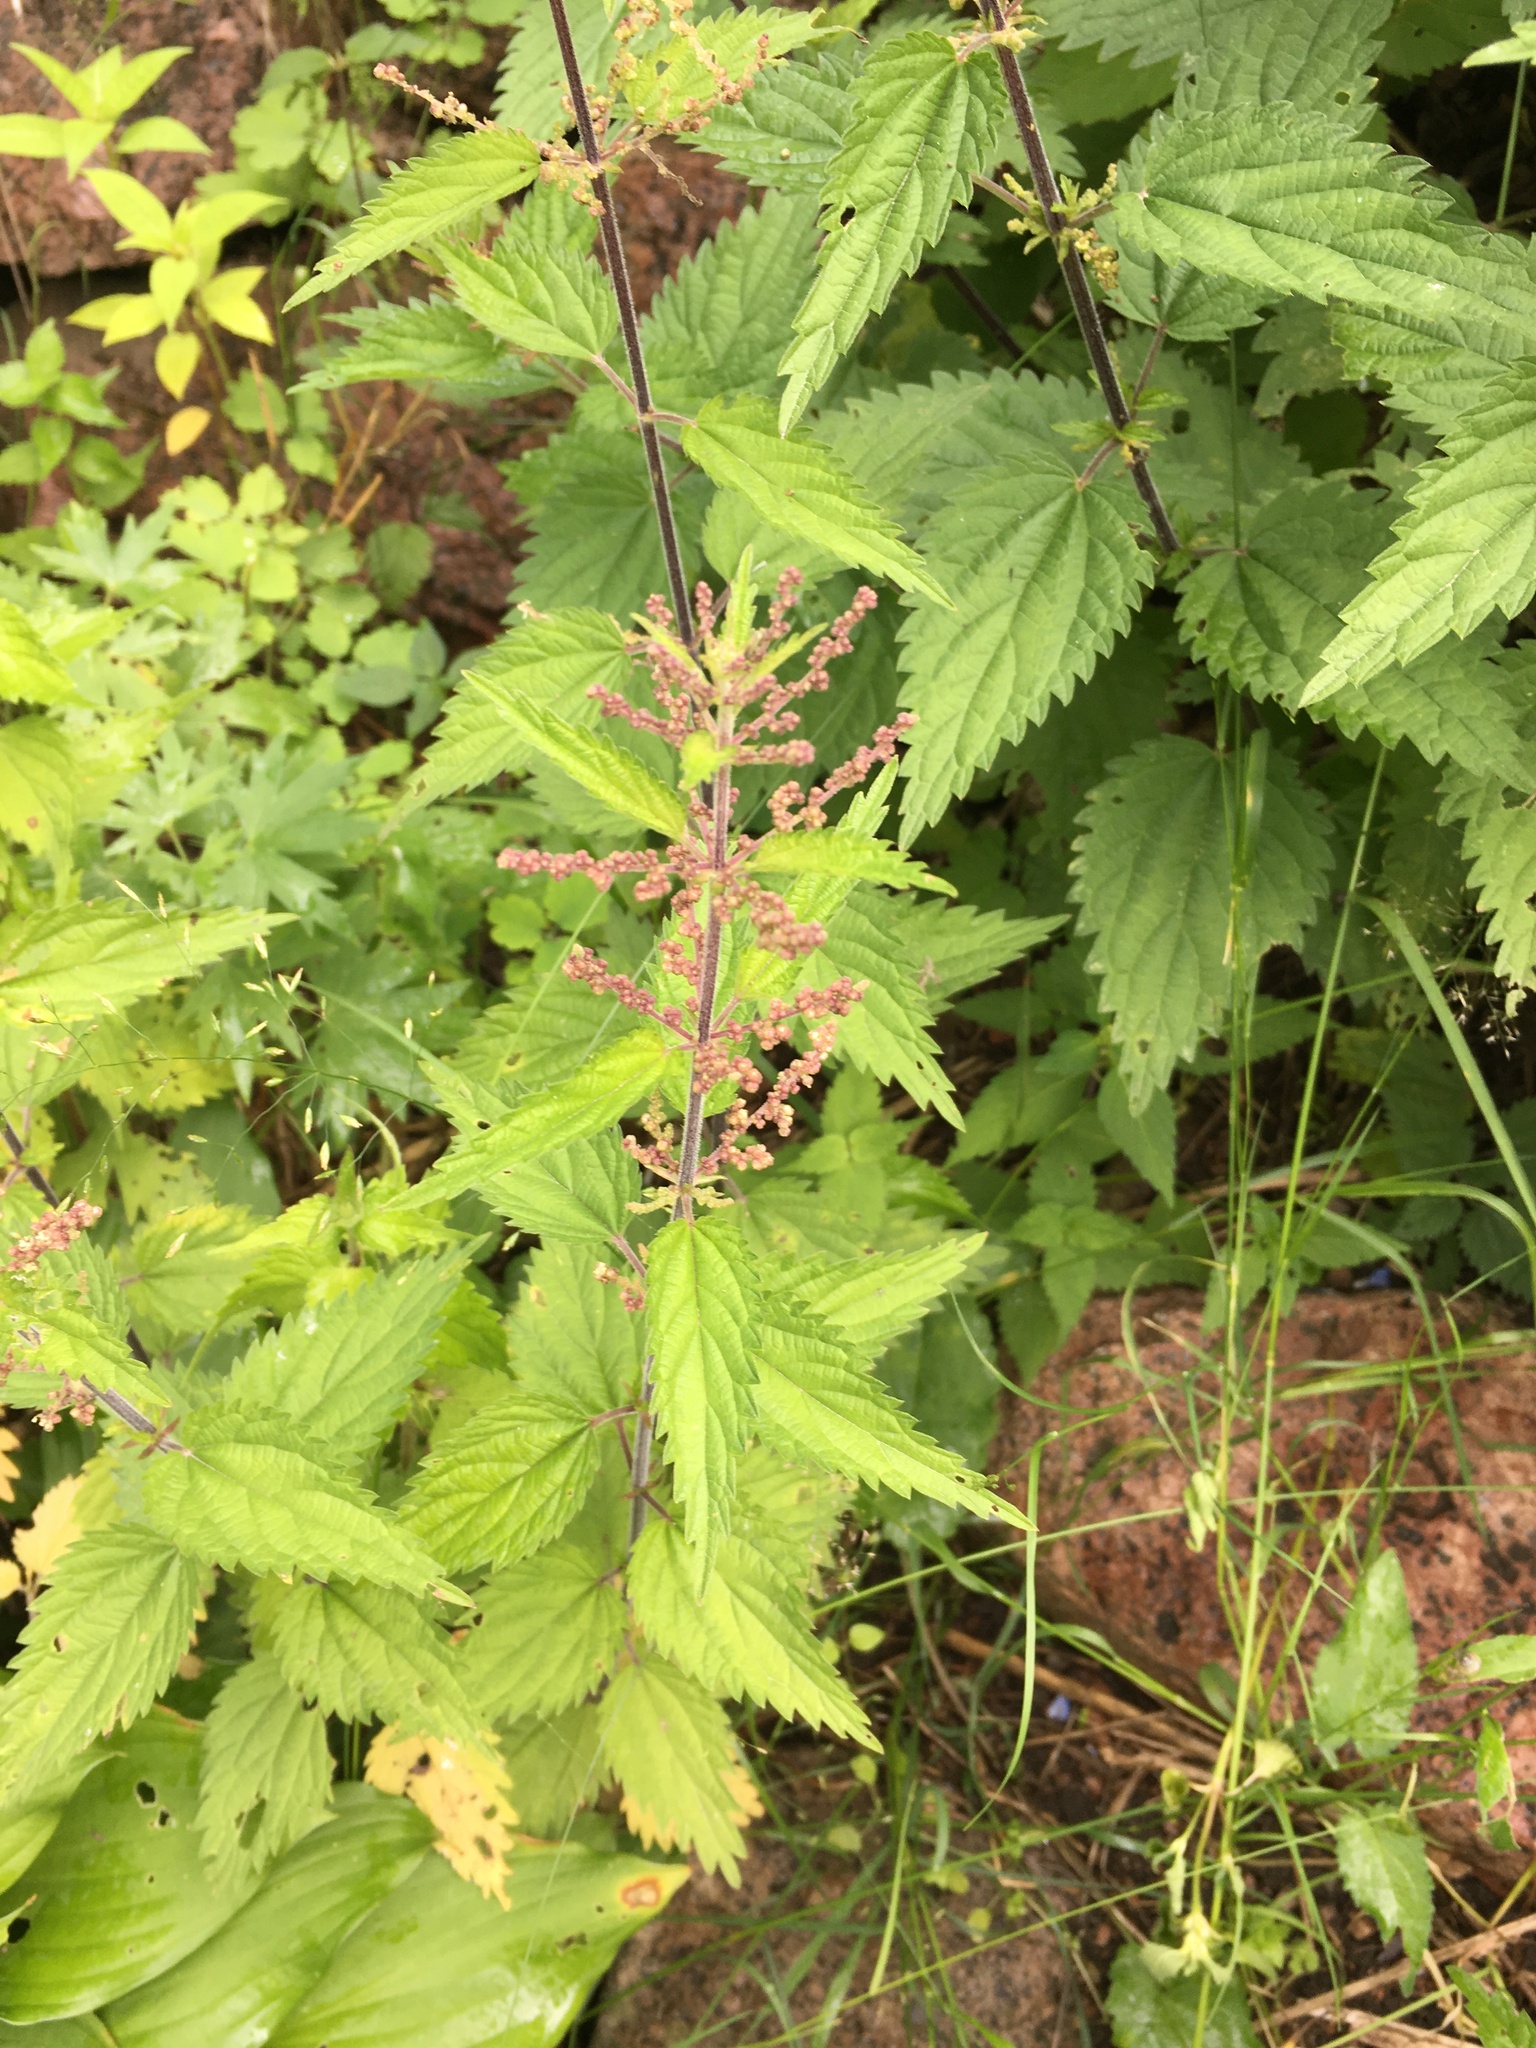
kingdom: Plantae
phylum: Tracheophyta
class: Magnoliopsida
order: Rosales
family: Urticaceae
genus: Urtica
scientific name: Urtica dioica
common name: Common nettle
